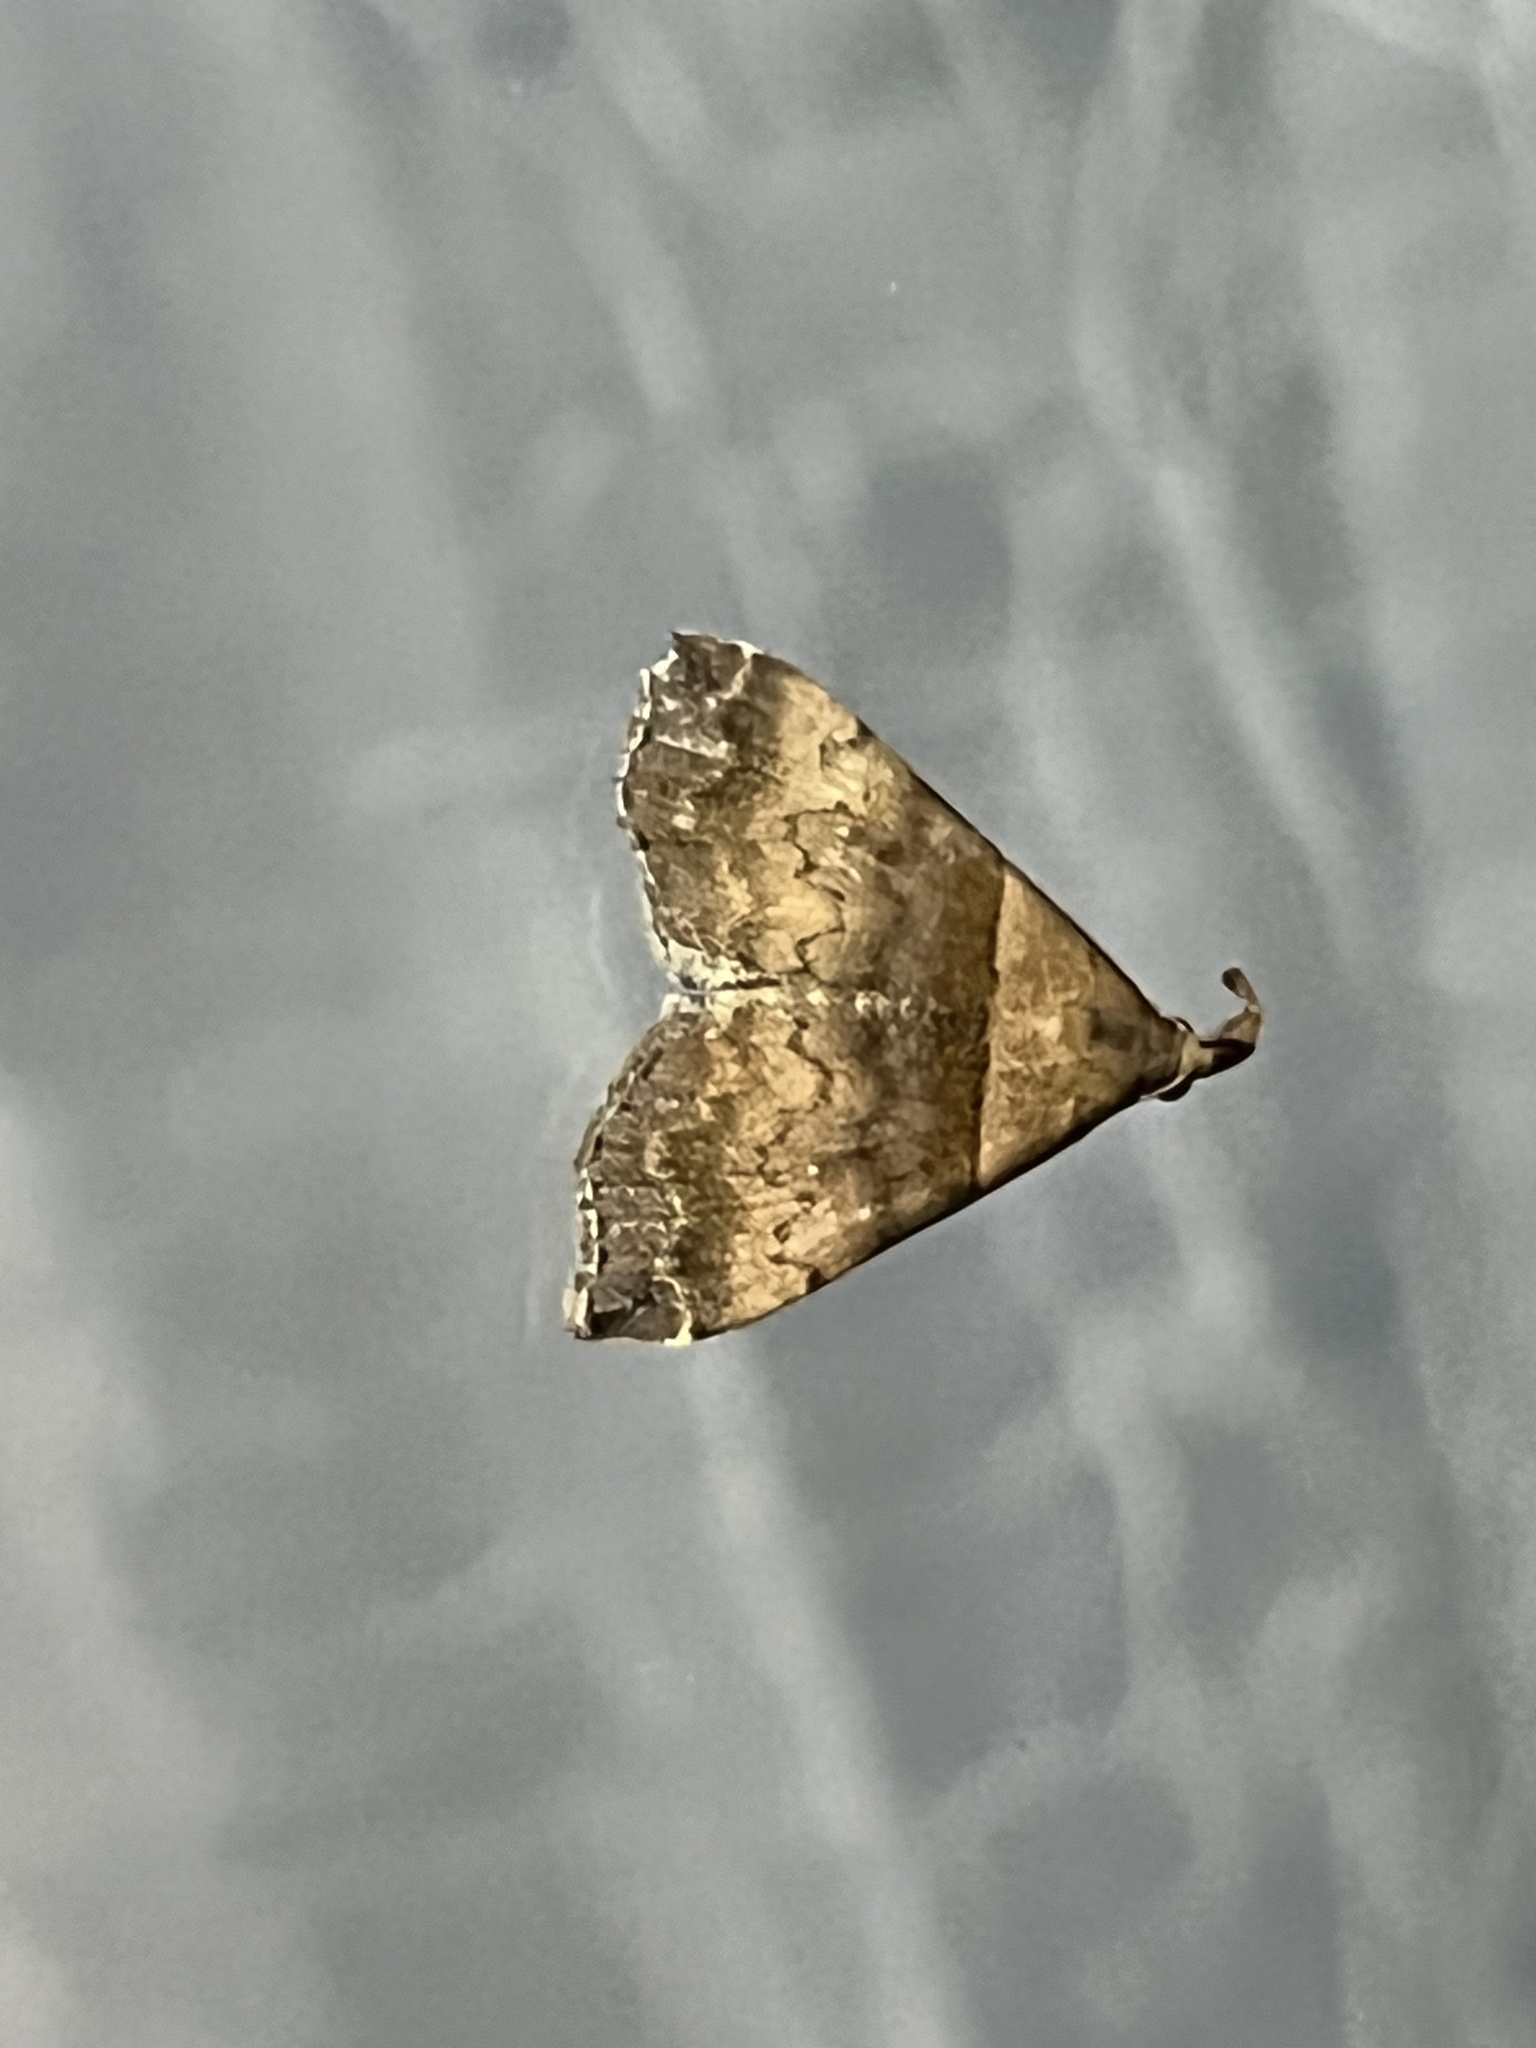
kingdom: Animalia
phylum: Arthropoda
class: Insecta
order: Lepidoptera
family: Erebidae
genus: Lascoria
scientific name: Lascoria ambigualis
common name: Ambiguous moth
